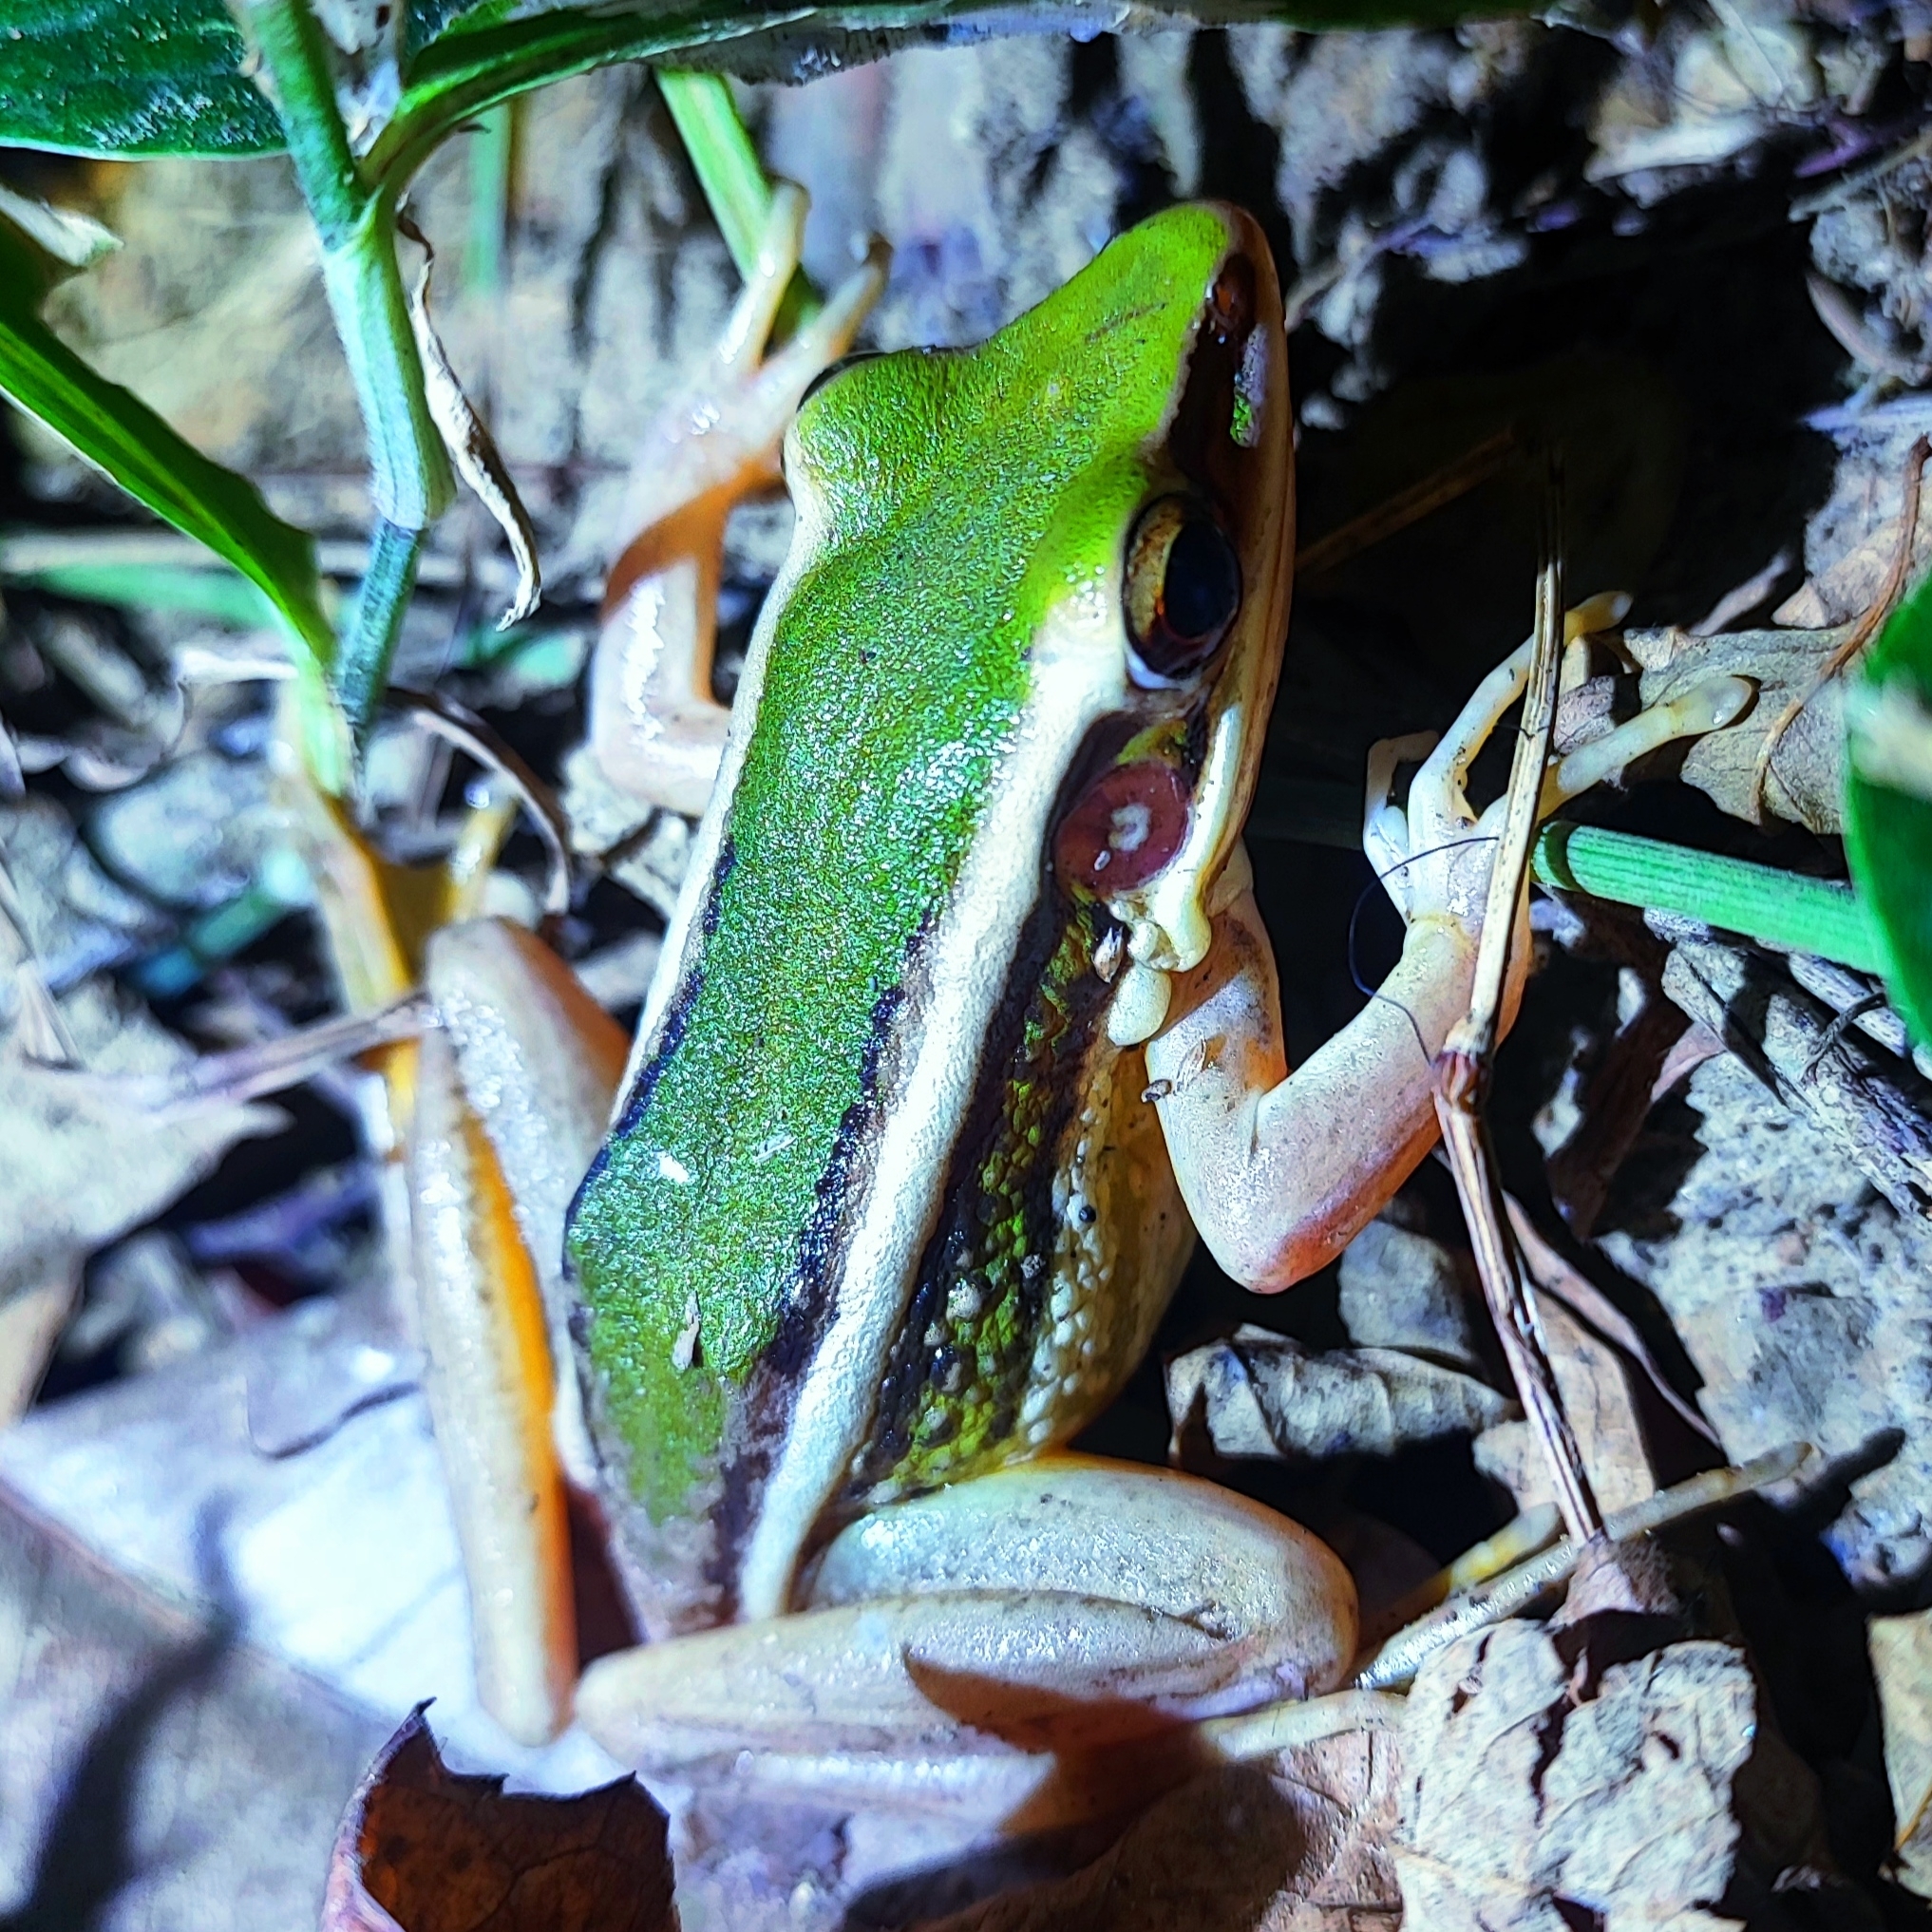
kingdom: Animalia
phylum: Chordata
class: Amphibia
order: Anura
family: Ranidae
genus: Hylarana
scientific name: Hylarana erythraea
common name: Common green frog/green paddy frog/leaf frog
